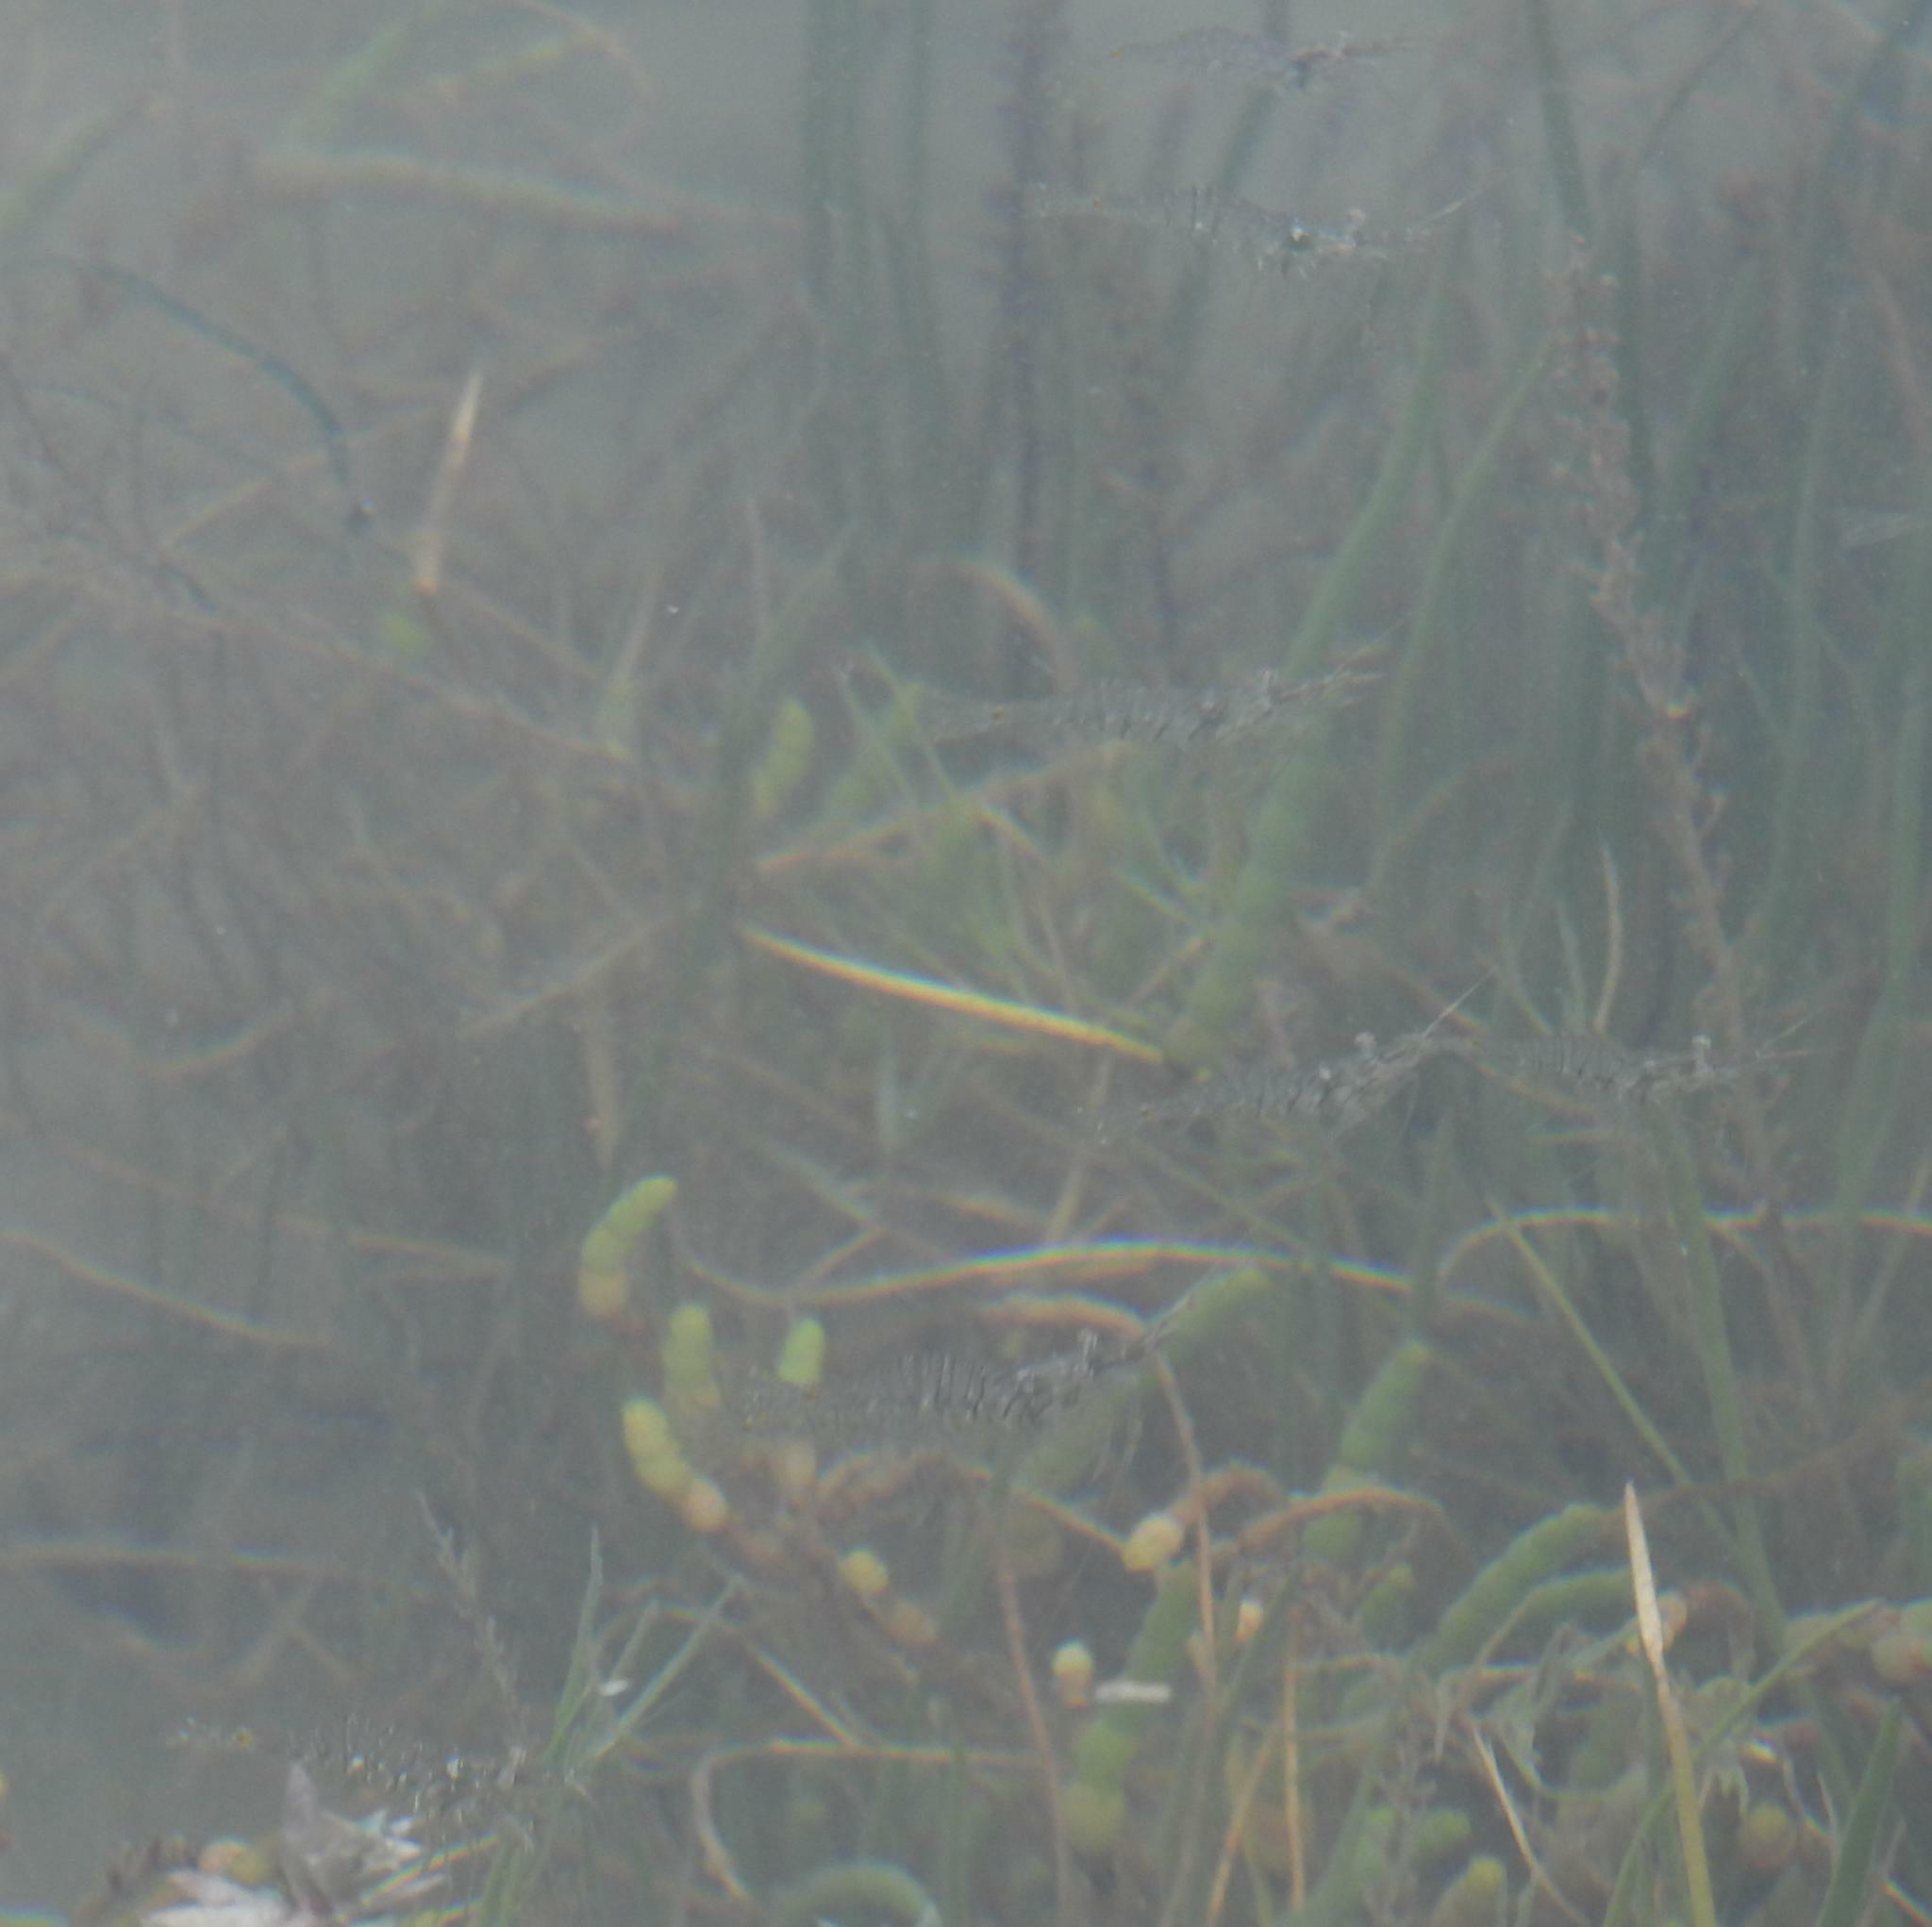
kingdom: Animalia
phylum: Arthropoda
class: Malacostraca
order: Decapoda
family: Palaemonidae
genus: Palaemon
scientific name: Palaemon peringueyi
